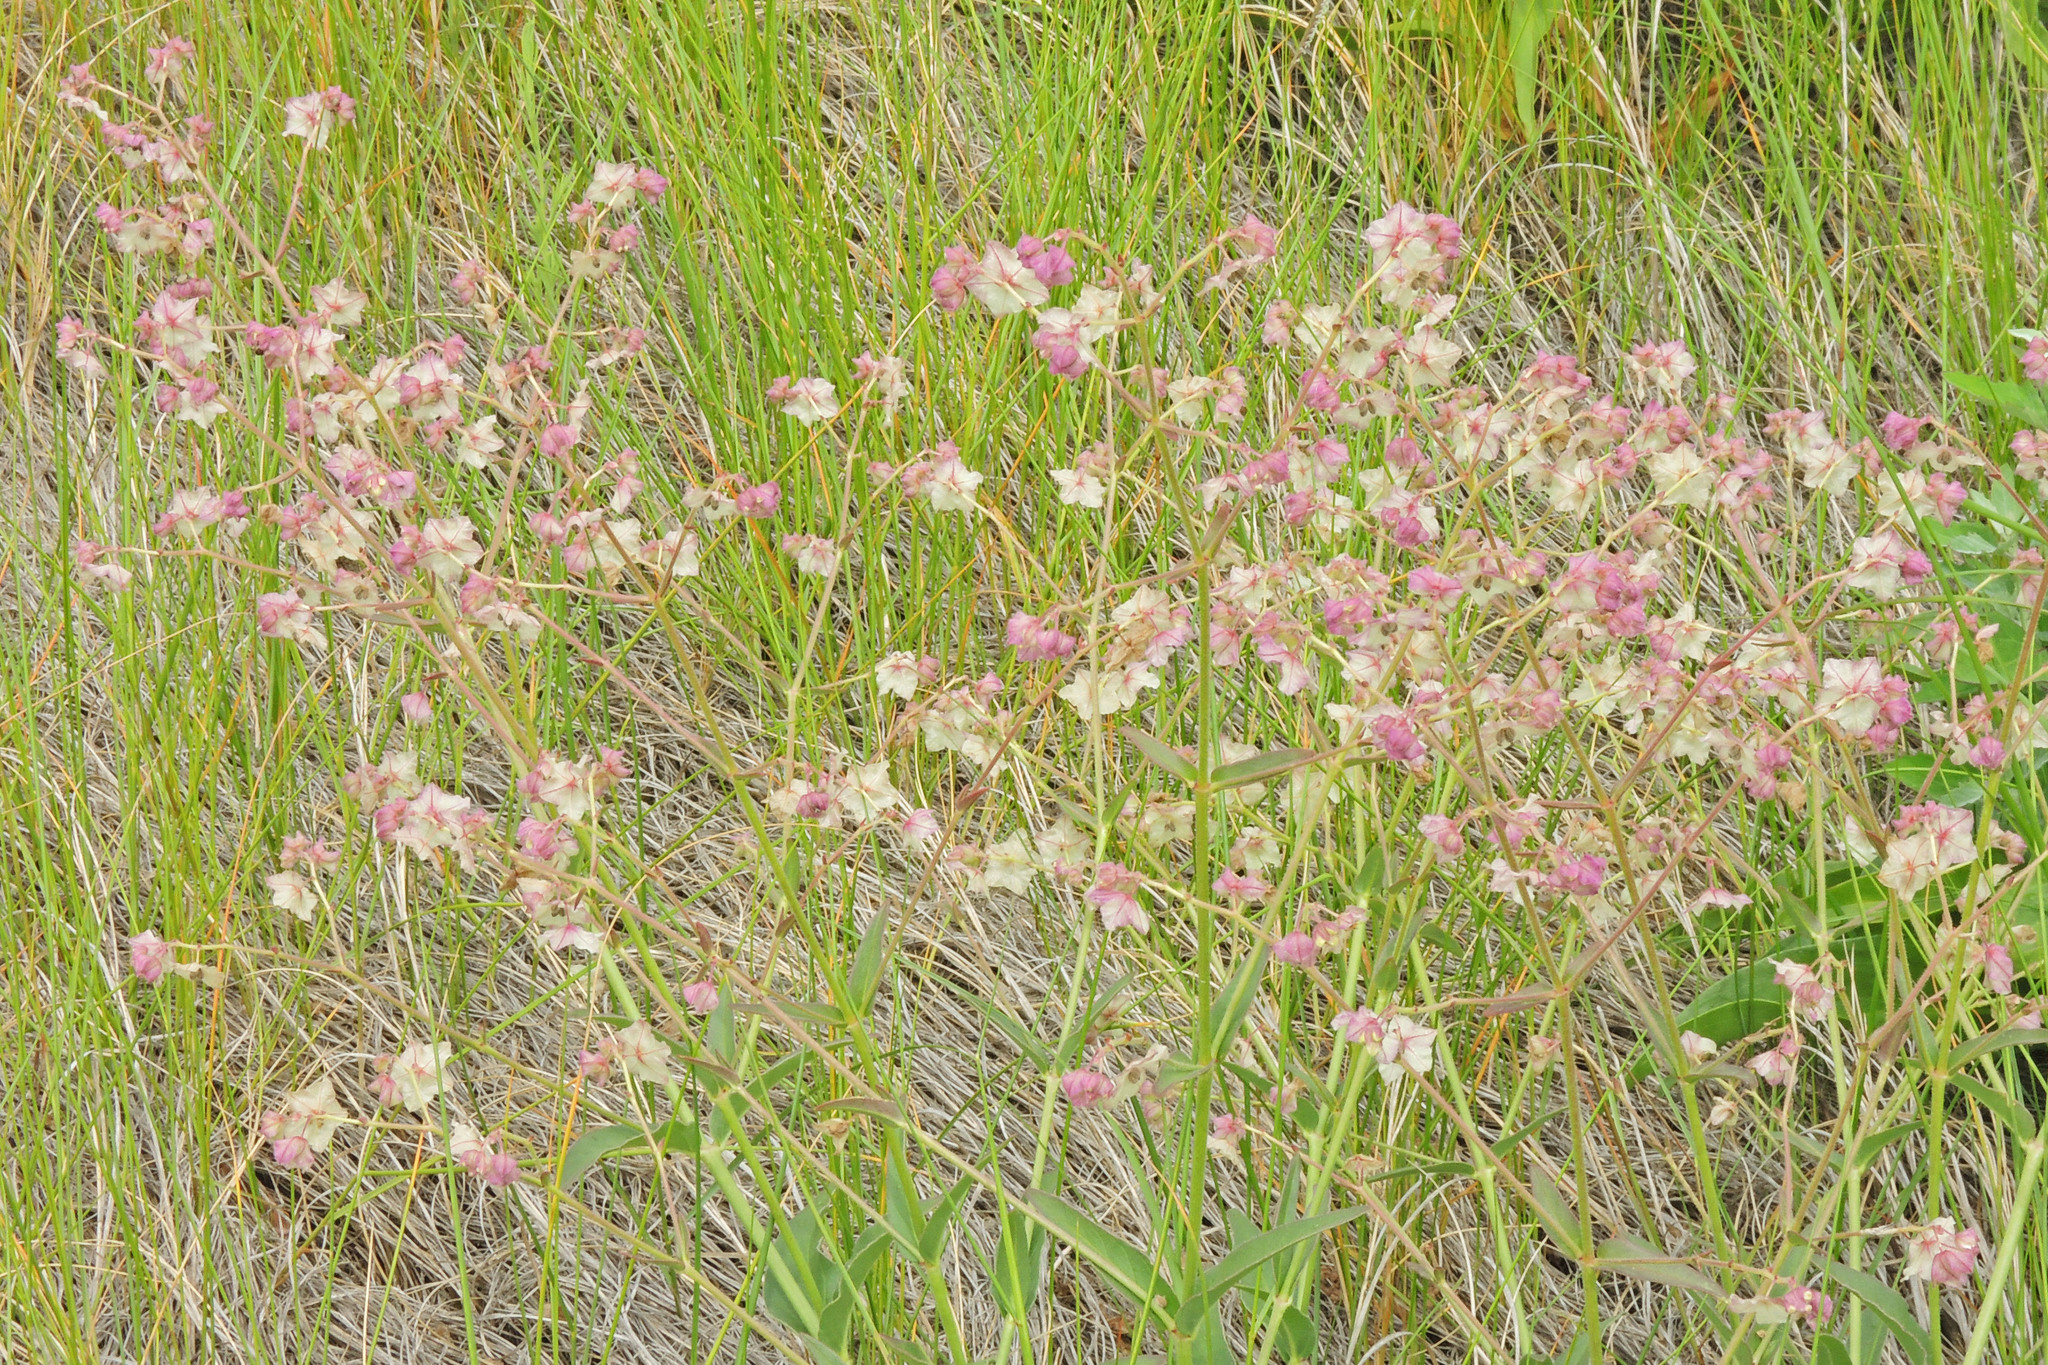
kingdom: Plantae
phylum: Tracheophyta
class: Magnoliopsida
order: Caryophyllales
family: Nyctaginaceae
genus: Mirabilis
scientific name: Mirabilis albida
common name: Hairy four-o'clock
